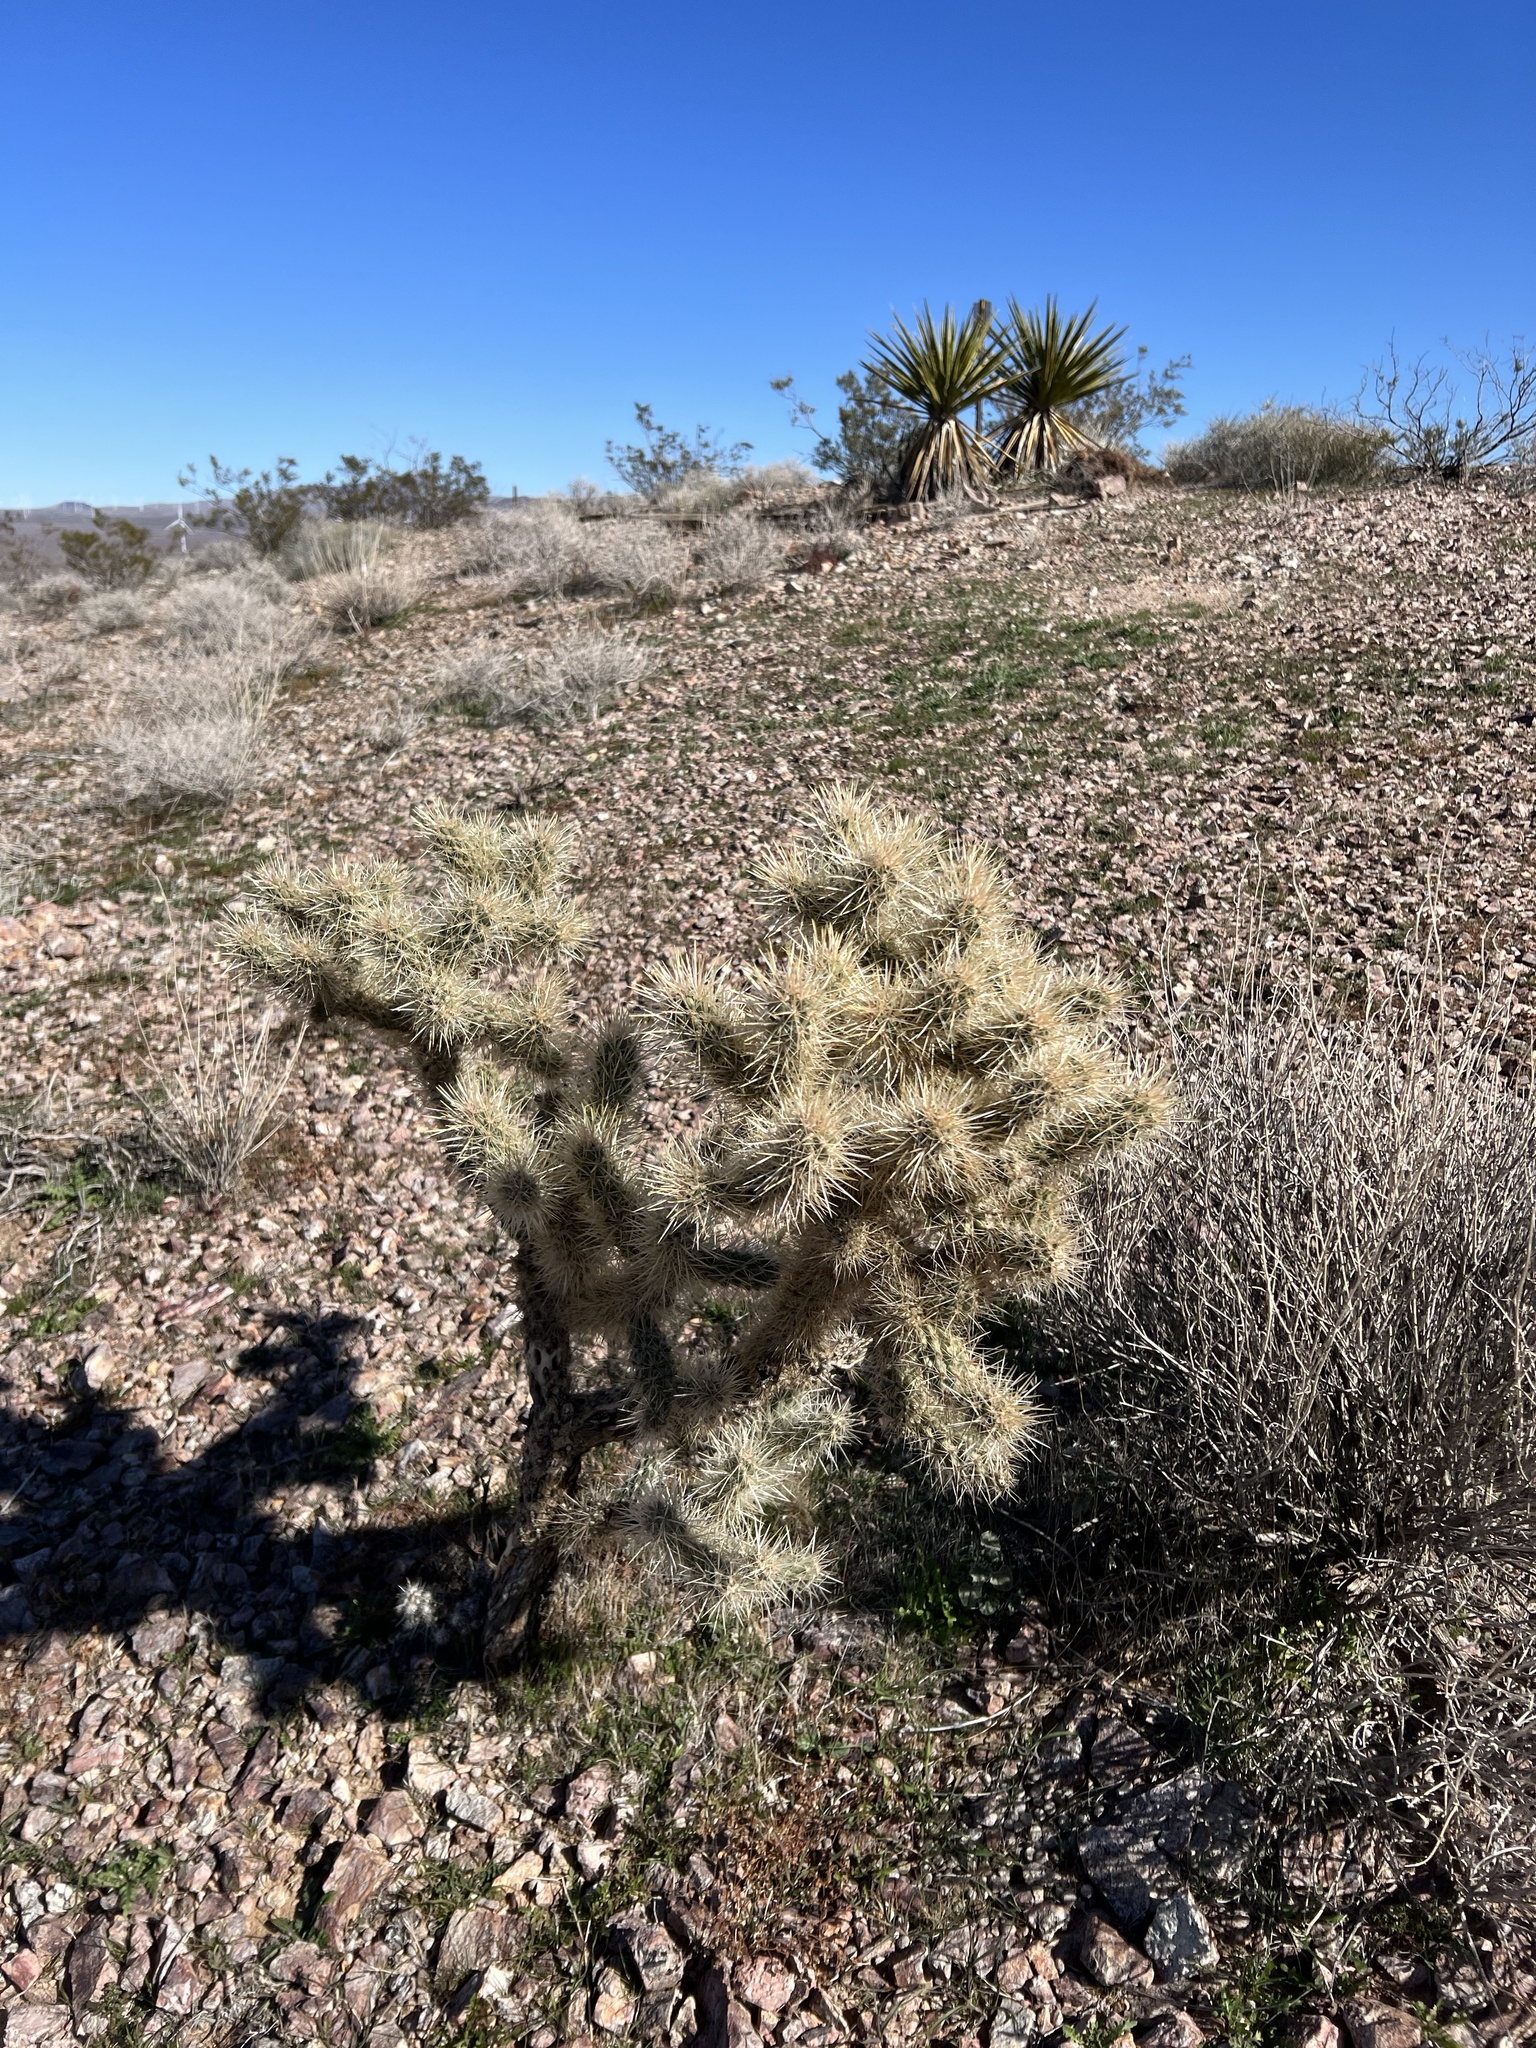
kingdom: Plantae
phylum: Tracheophyta
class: Magnoliopsida
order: Caryophyllales
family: Cactaceae
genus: Cylindropuntia
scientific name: Cylindropuntia echinocarpa
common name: Ground cholla
